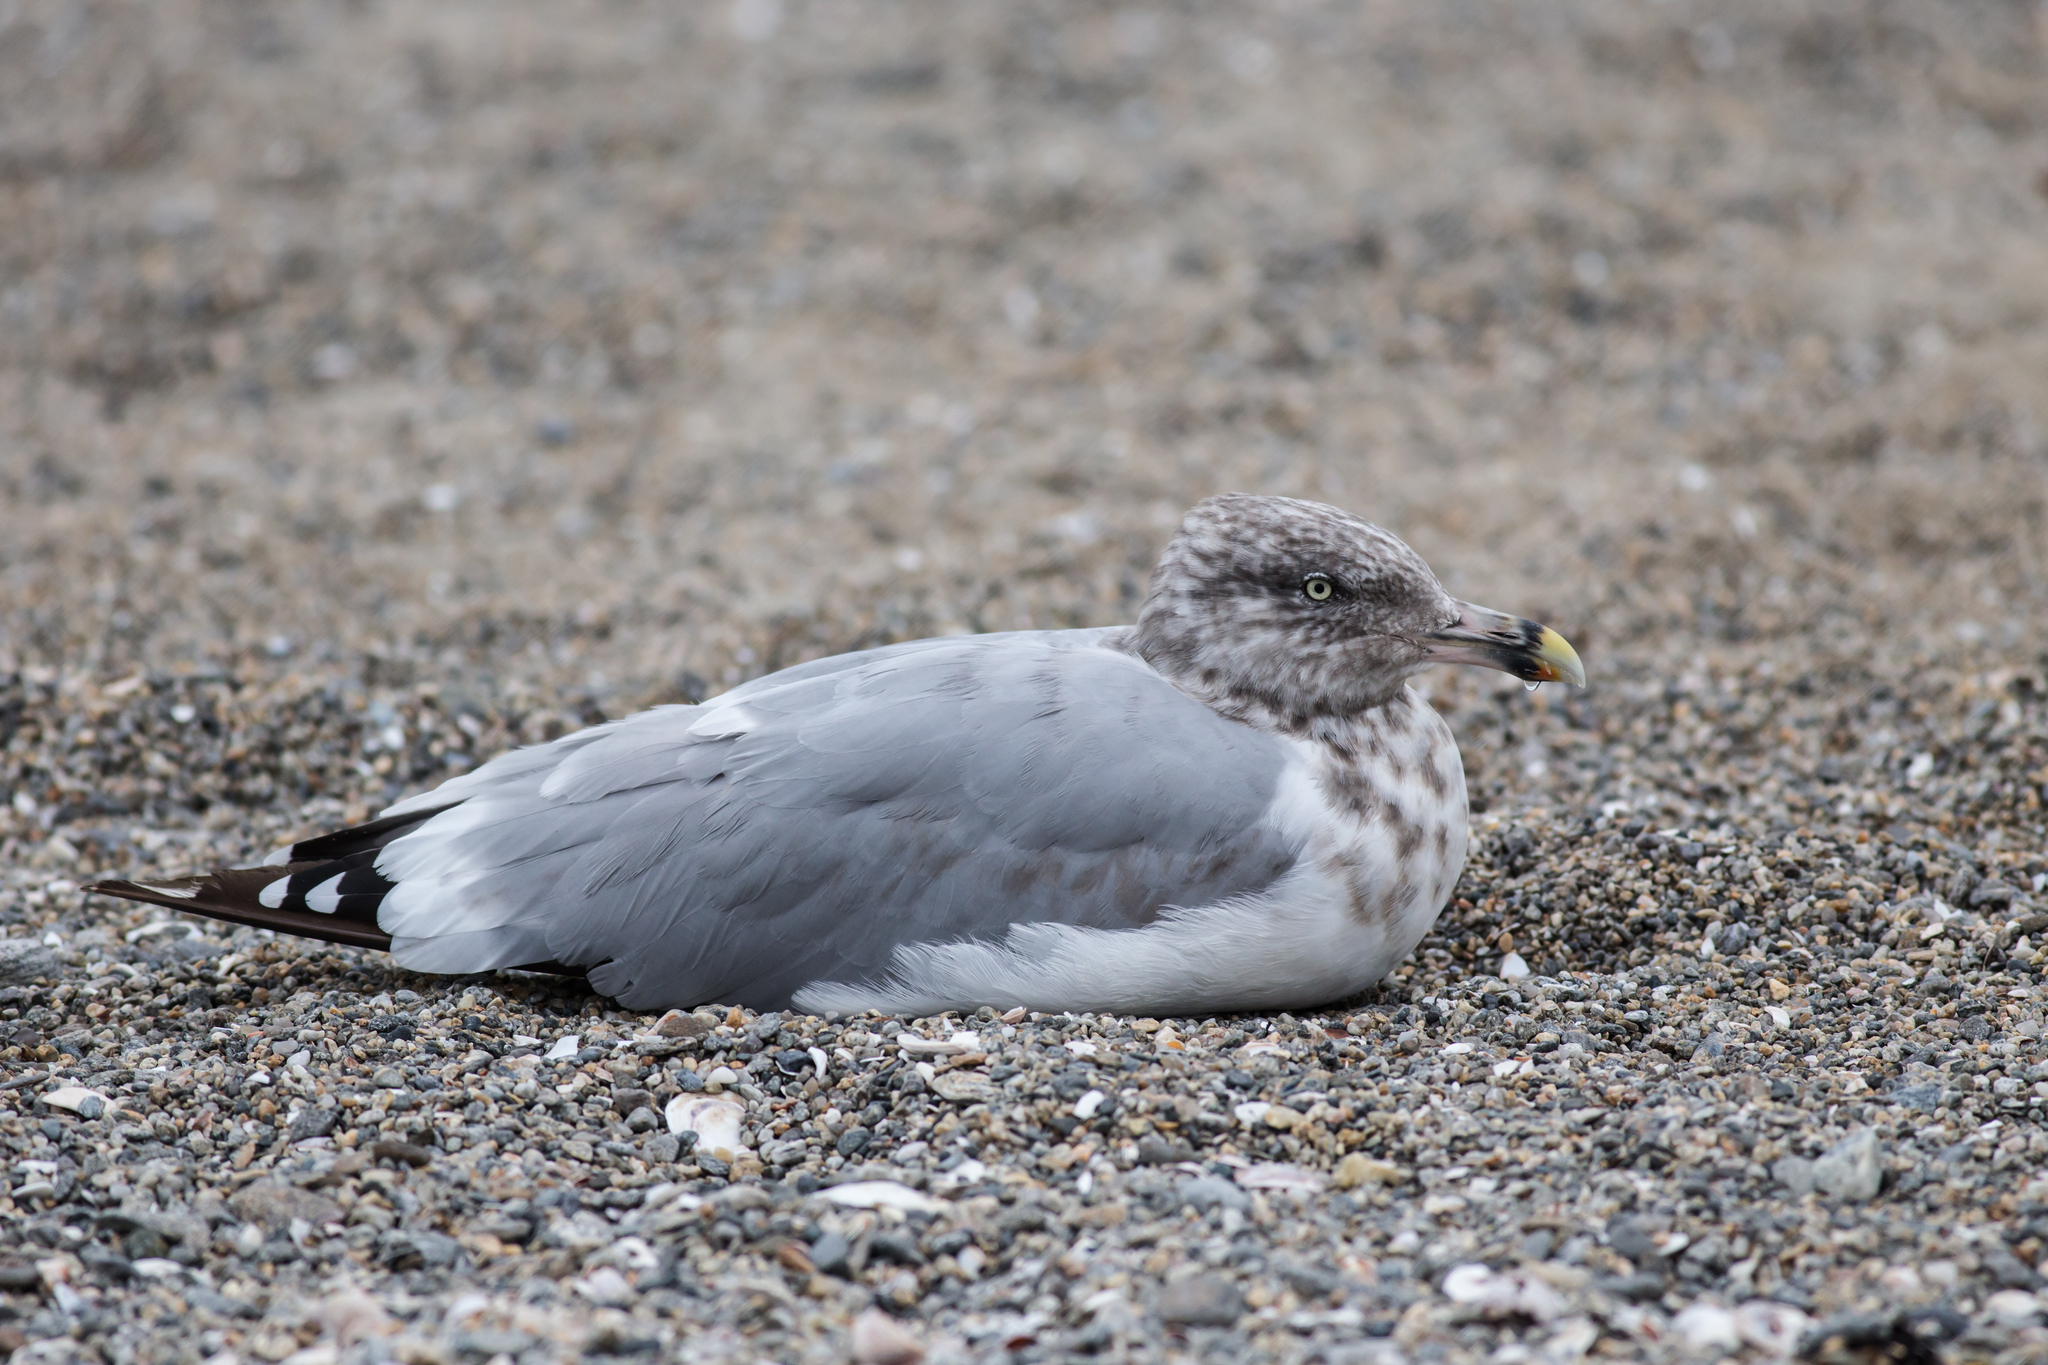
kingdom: Animalia
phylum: Chordata
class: Aves
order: Charadriiformes
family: Laridae
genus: Larus
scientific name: Larus argentatus
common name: Herring gull
